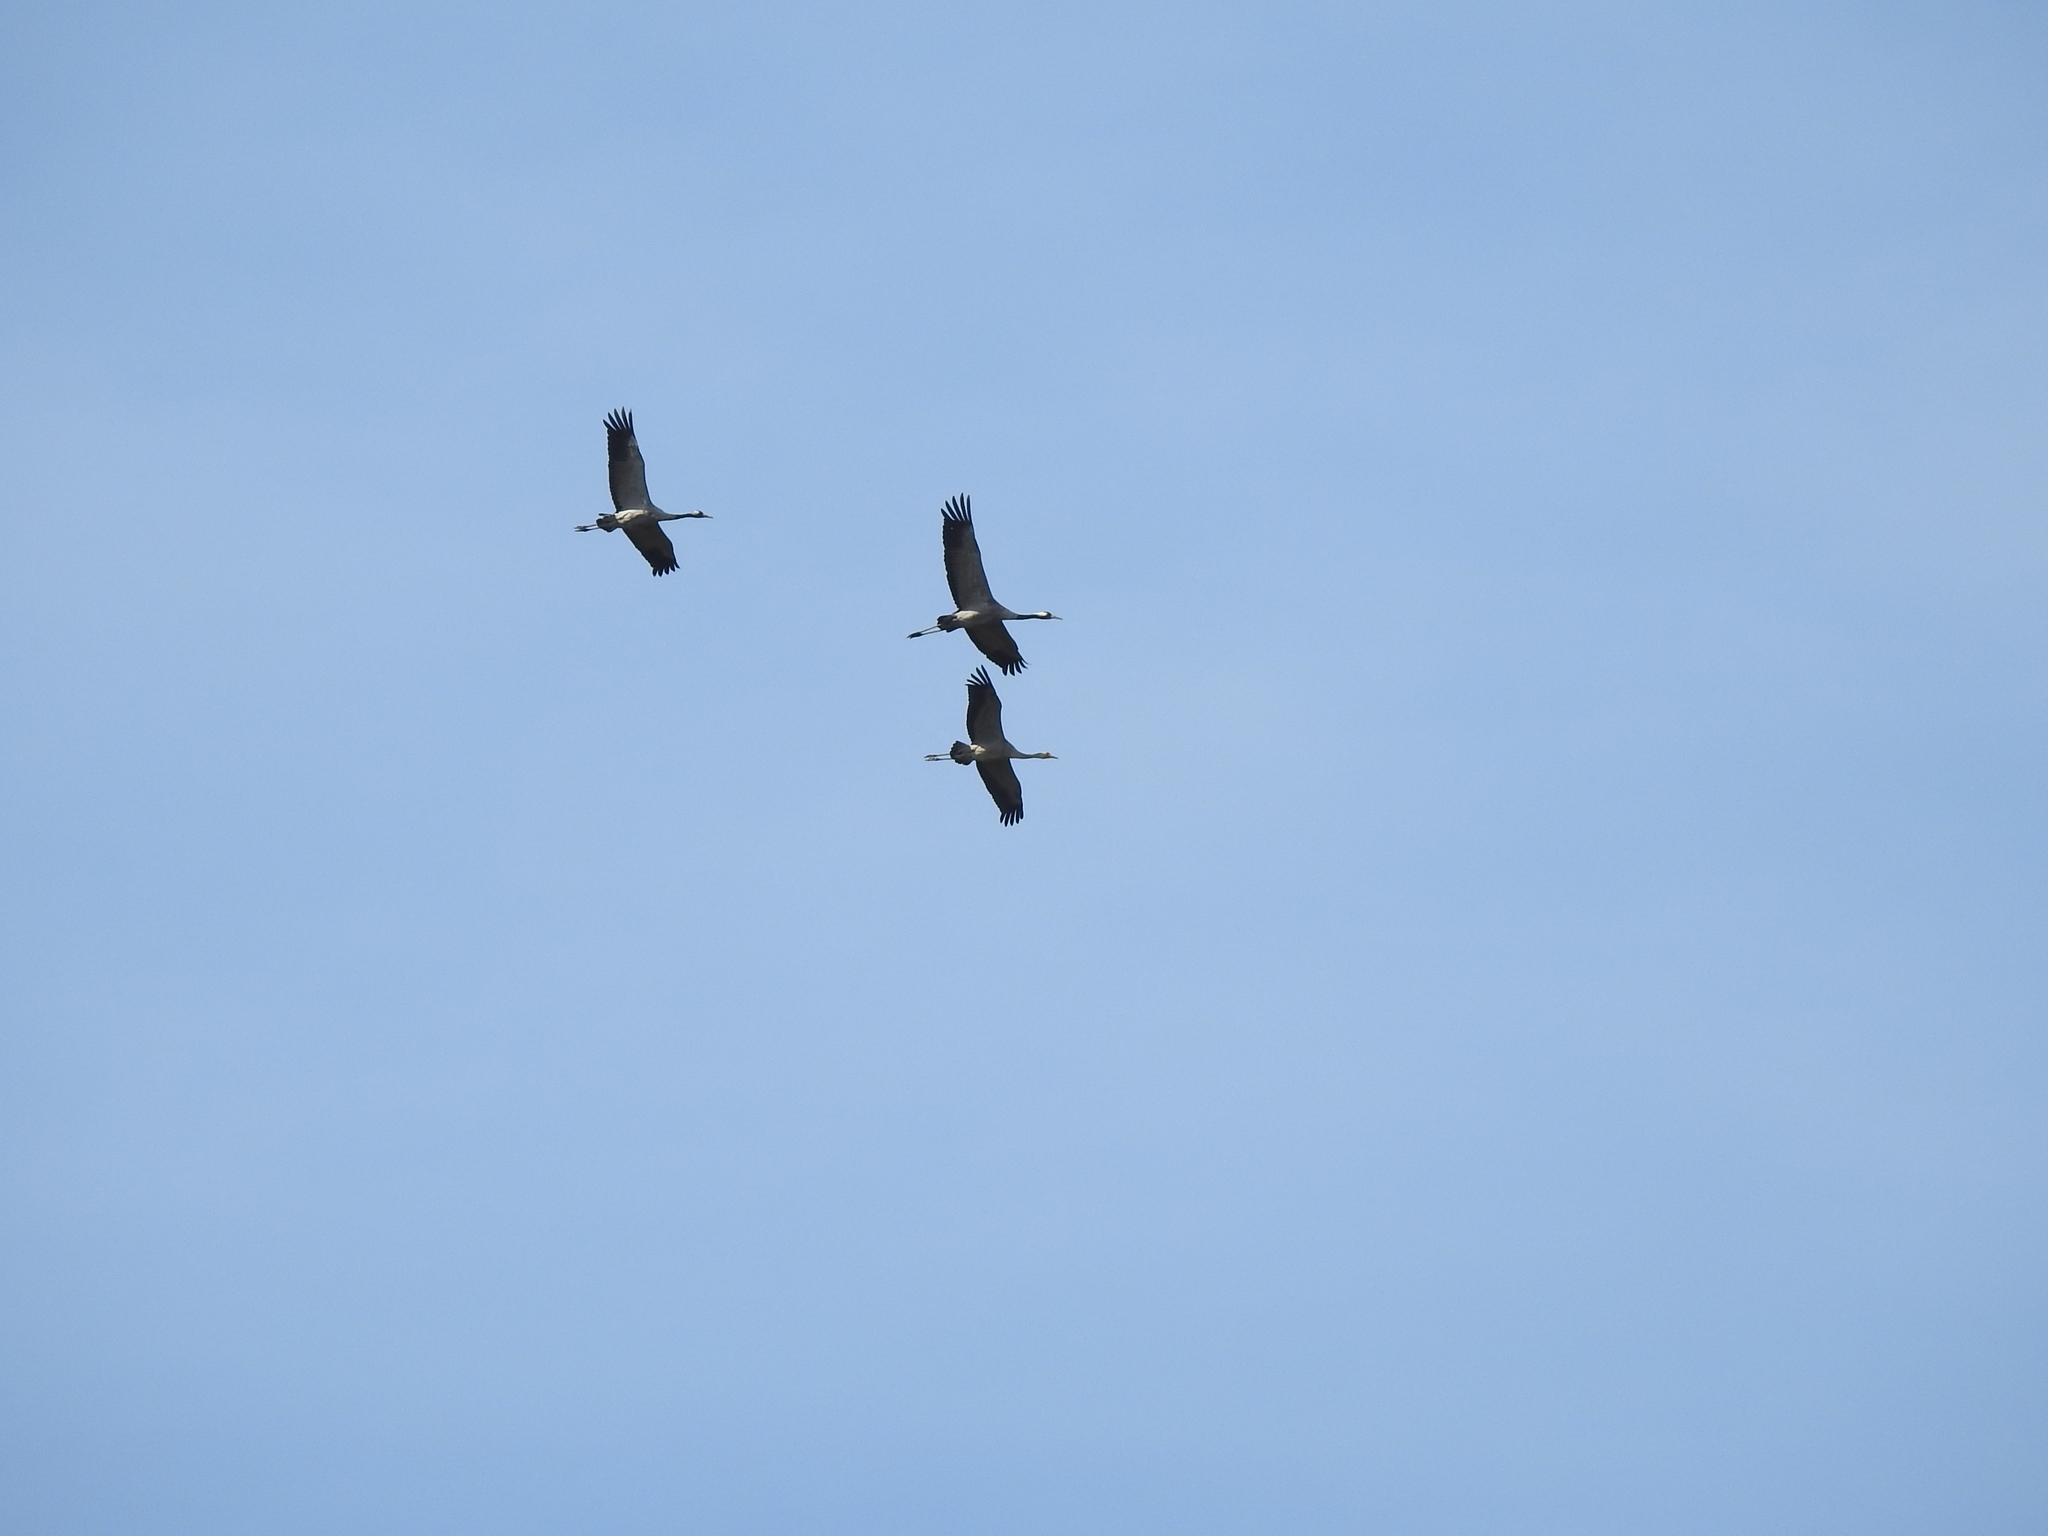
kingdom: Animalia
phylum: Chordata
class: Aves
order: Gruiformes
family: Gruidae
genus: Grus
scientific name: Grus grus
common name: Common crane
